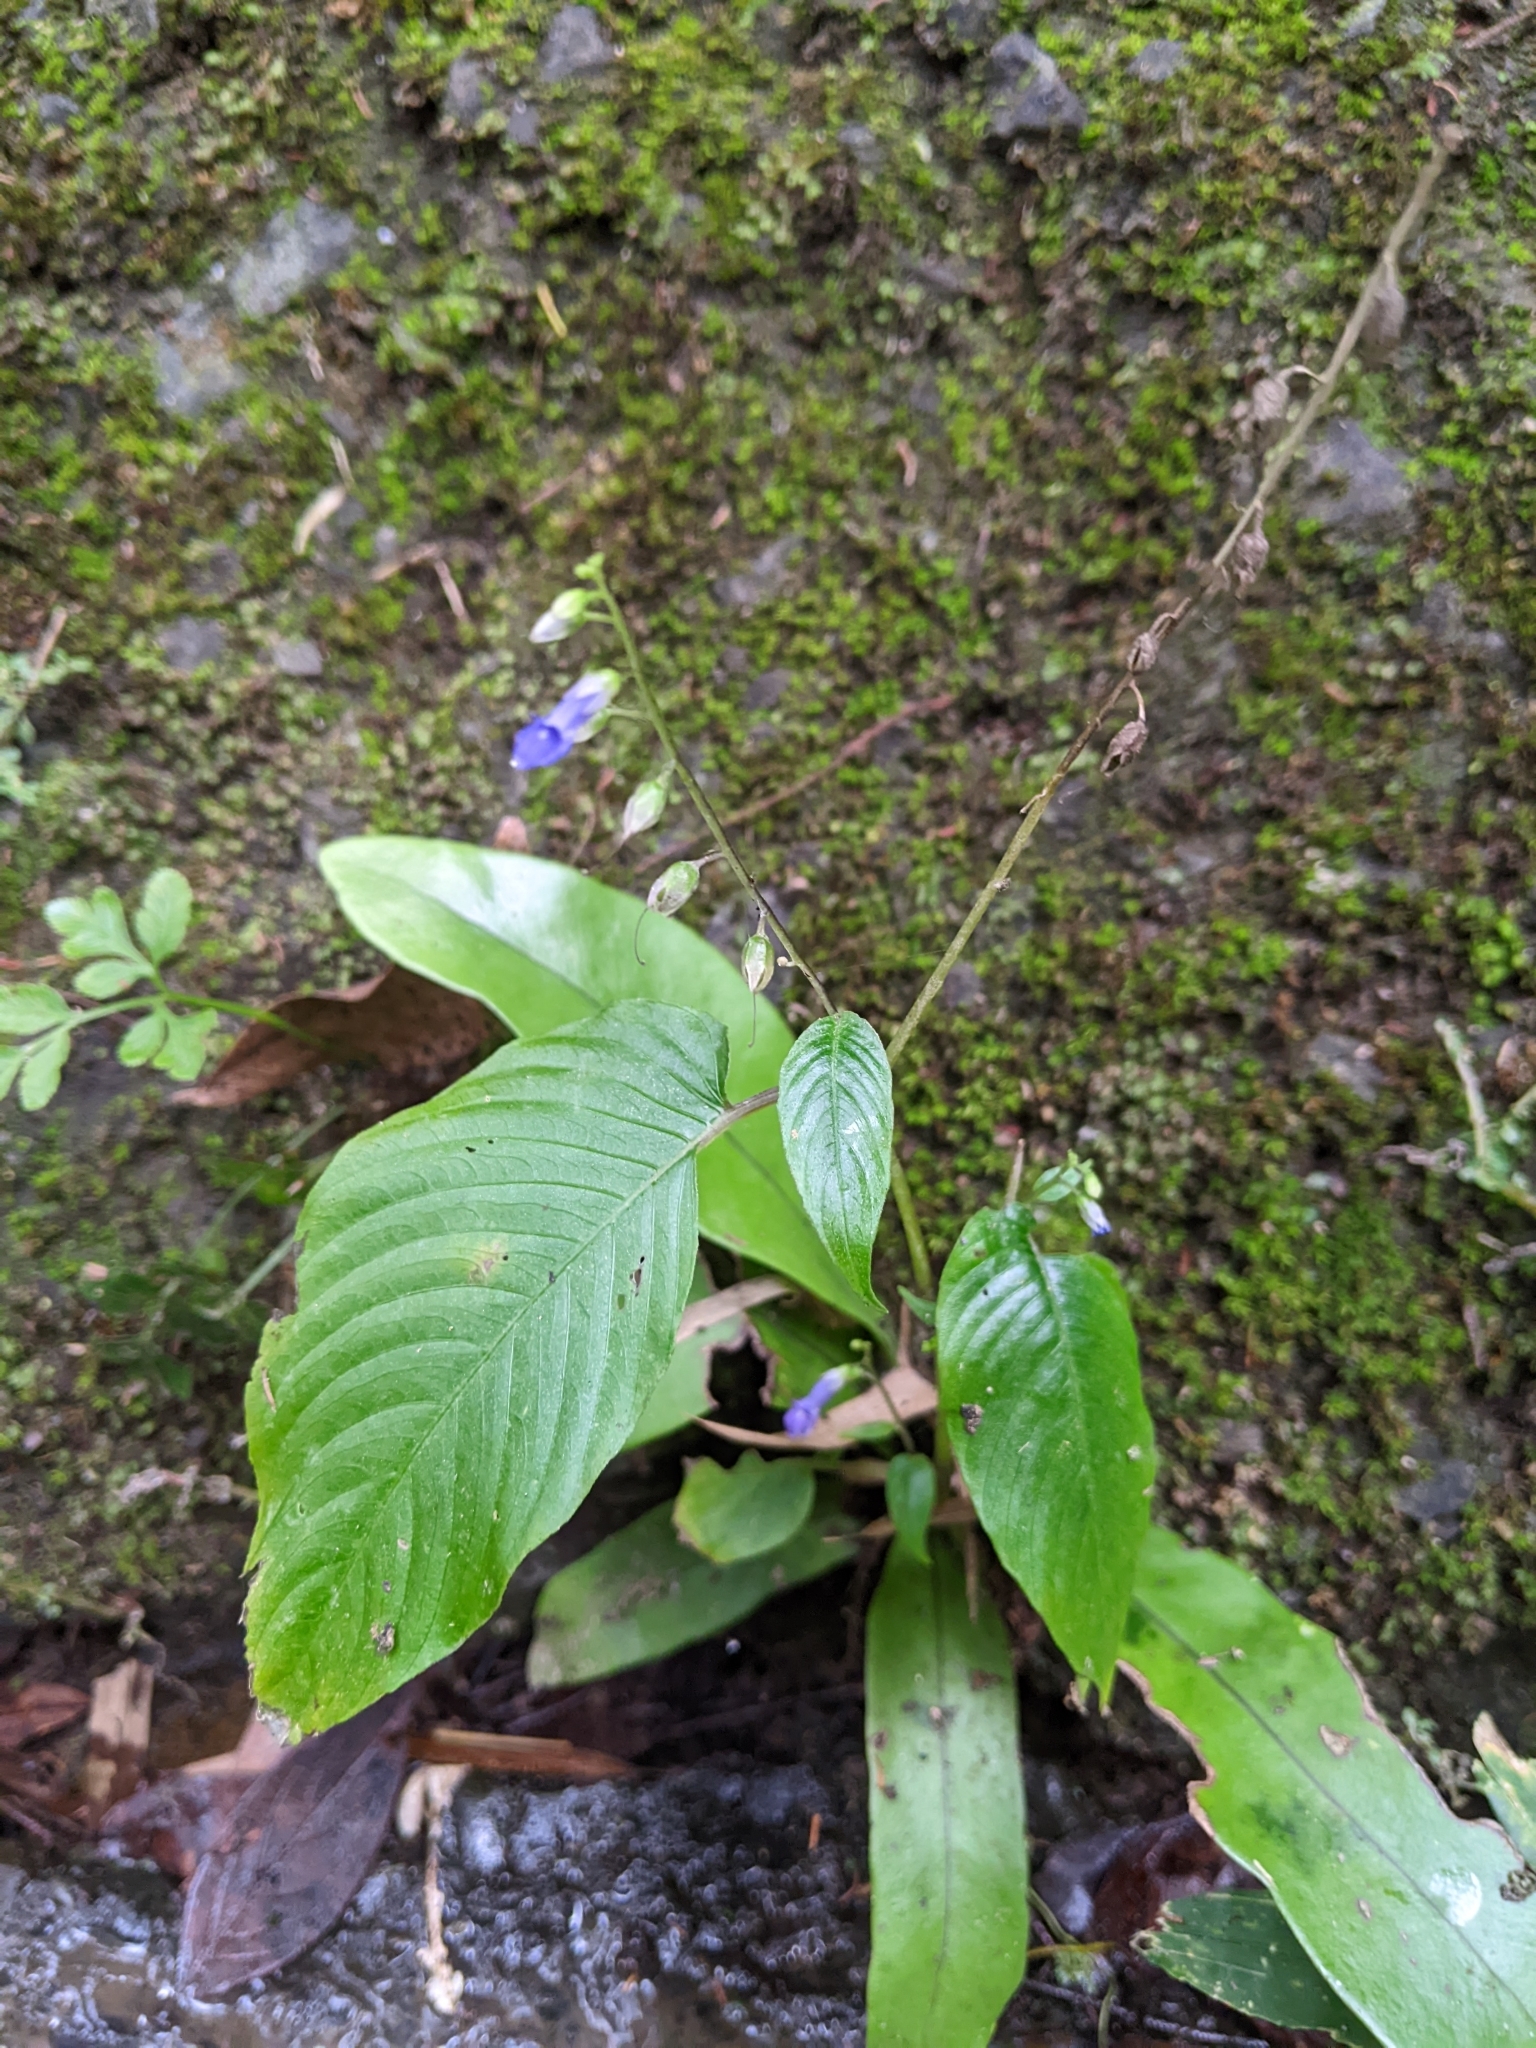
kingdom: Plantae
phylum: Tracheophyta
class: Magnoliopsida
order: Lamiales
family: Gesneriaceae
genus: Rhynchoglossum
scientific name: Rhynchoglossum obliquum
